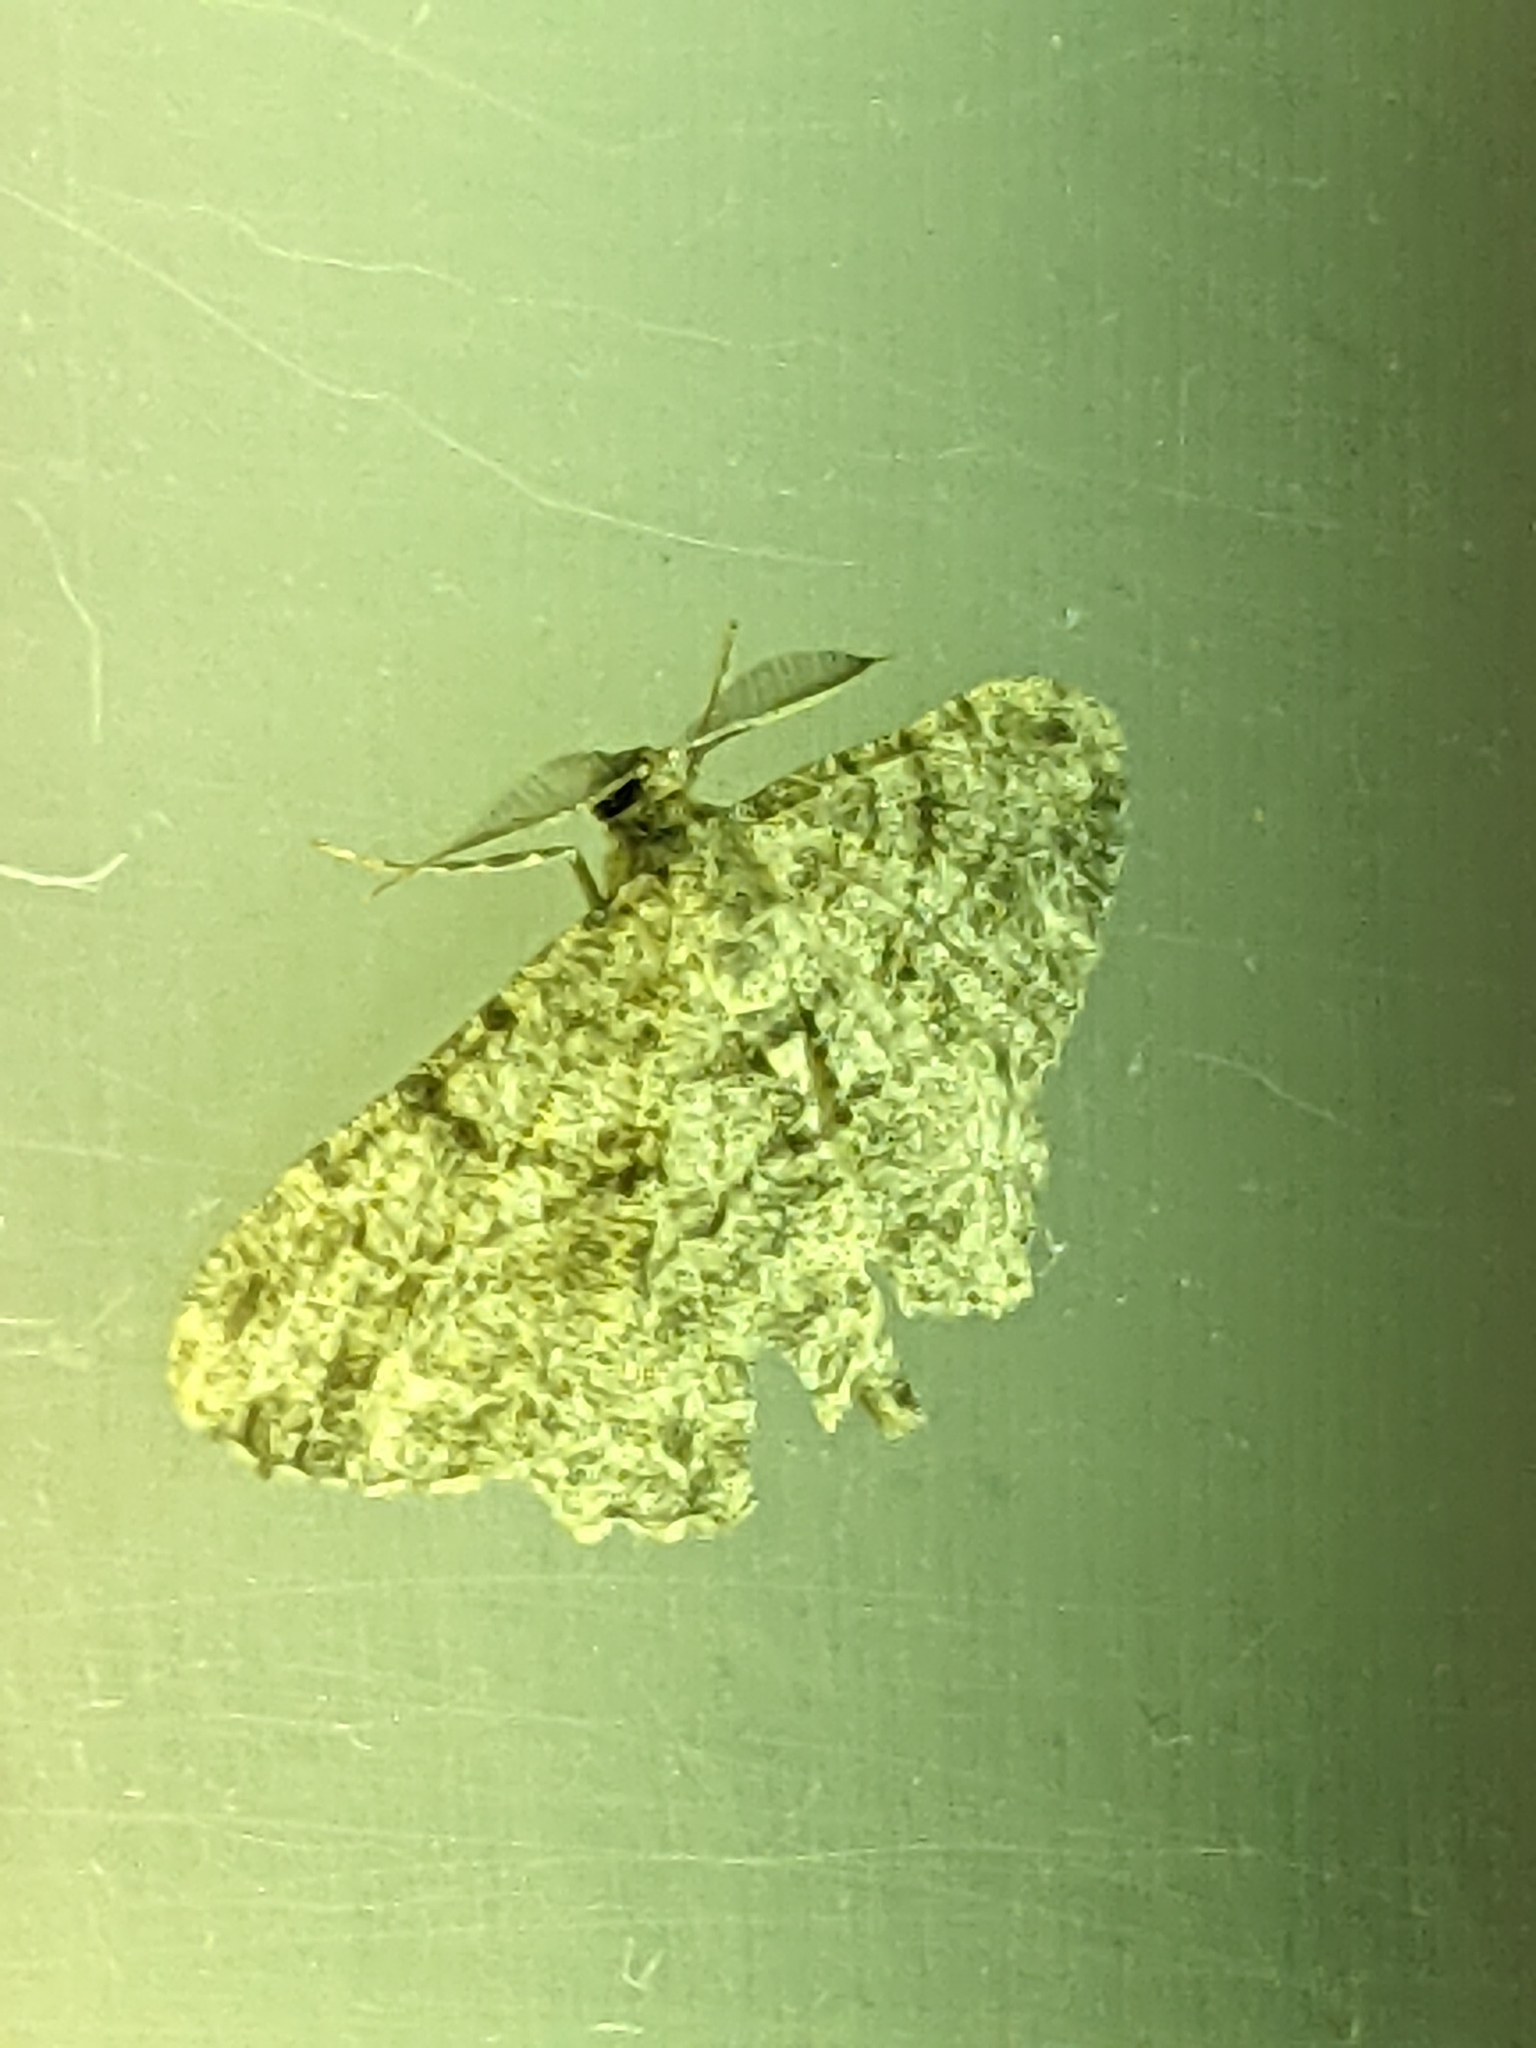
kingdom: Animalia
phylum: Arthropoda
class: Insecta
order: Lepidoptera
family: Geometridae
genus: Peribatodes
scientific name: Peribatodes rhomboidaria
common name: Willow beauty
